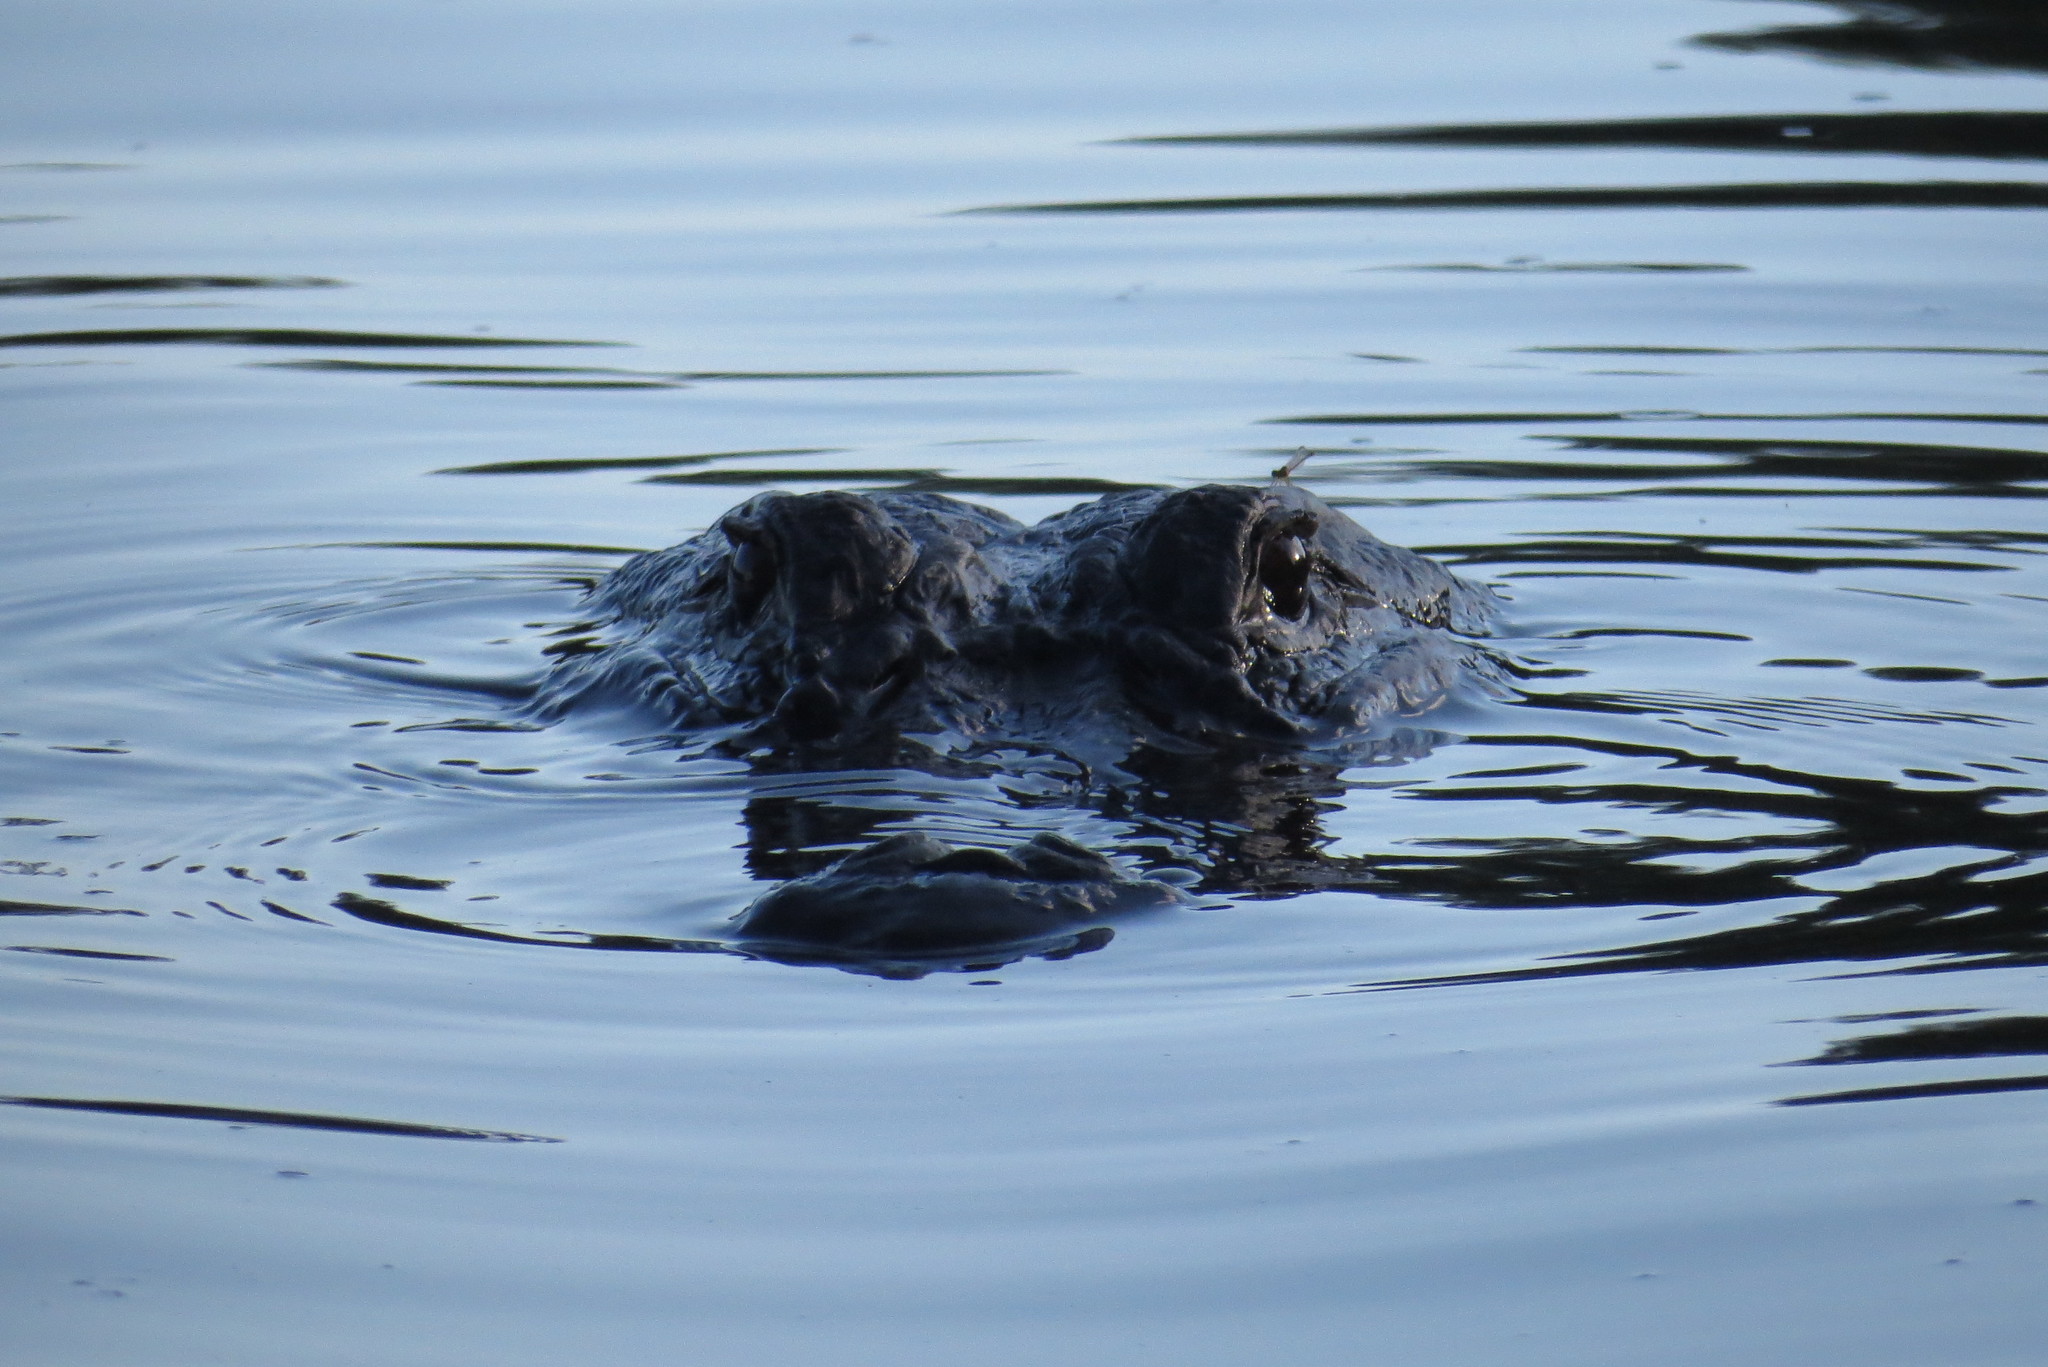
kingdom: Animalia
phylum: Chordata
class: Crocodylia
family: Alligatoridae
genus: Alligator
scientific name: Alligator mississippiensis
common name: American alligator
